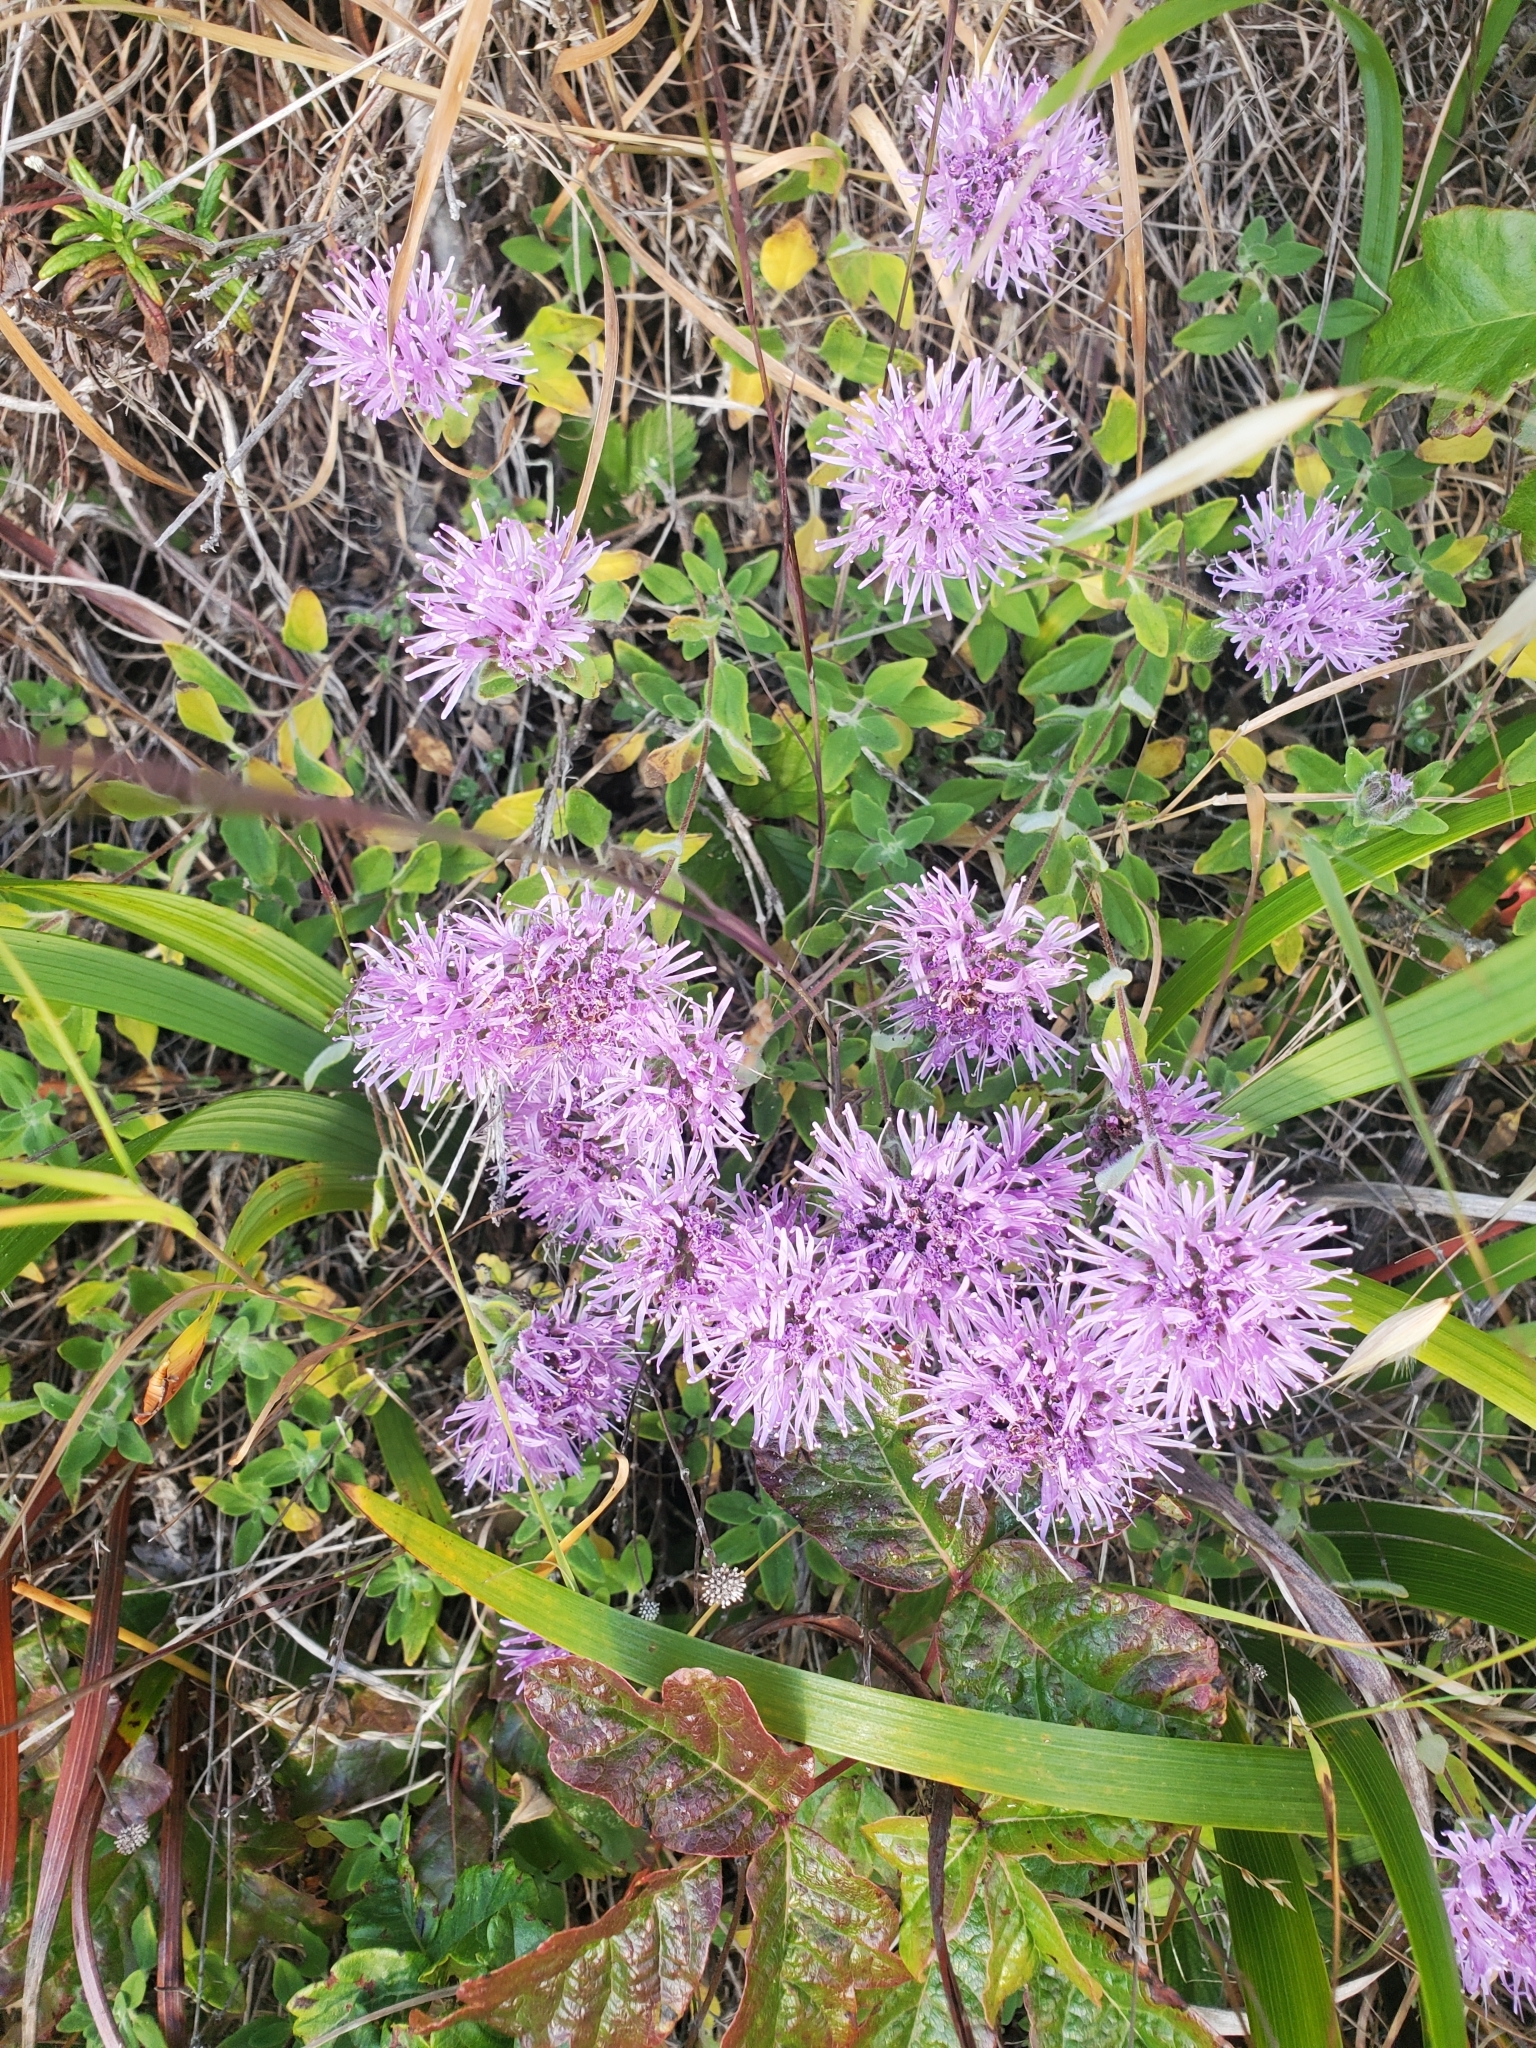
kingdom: Plantae
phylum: Tracheophyta
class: Magnoliopsida
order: Lamiales
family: Lamiaceae
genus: Monardella
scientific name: Monardella odoratissima
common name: Pacific monardella
